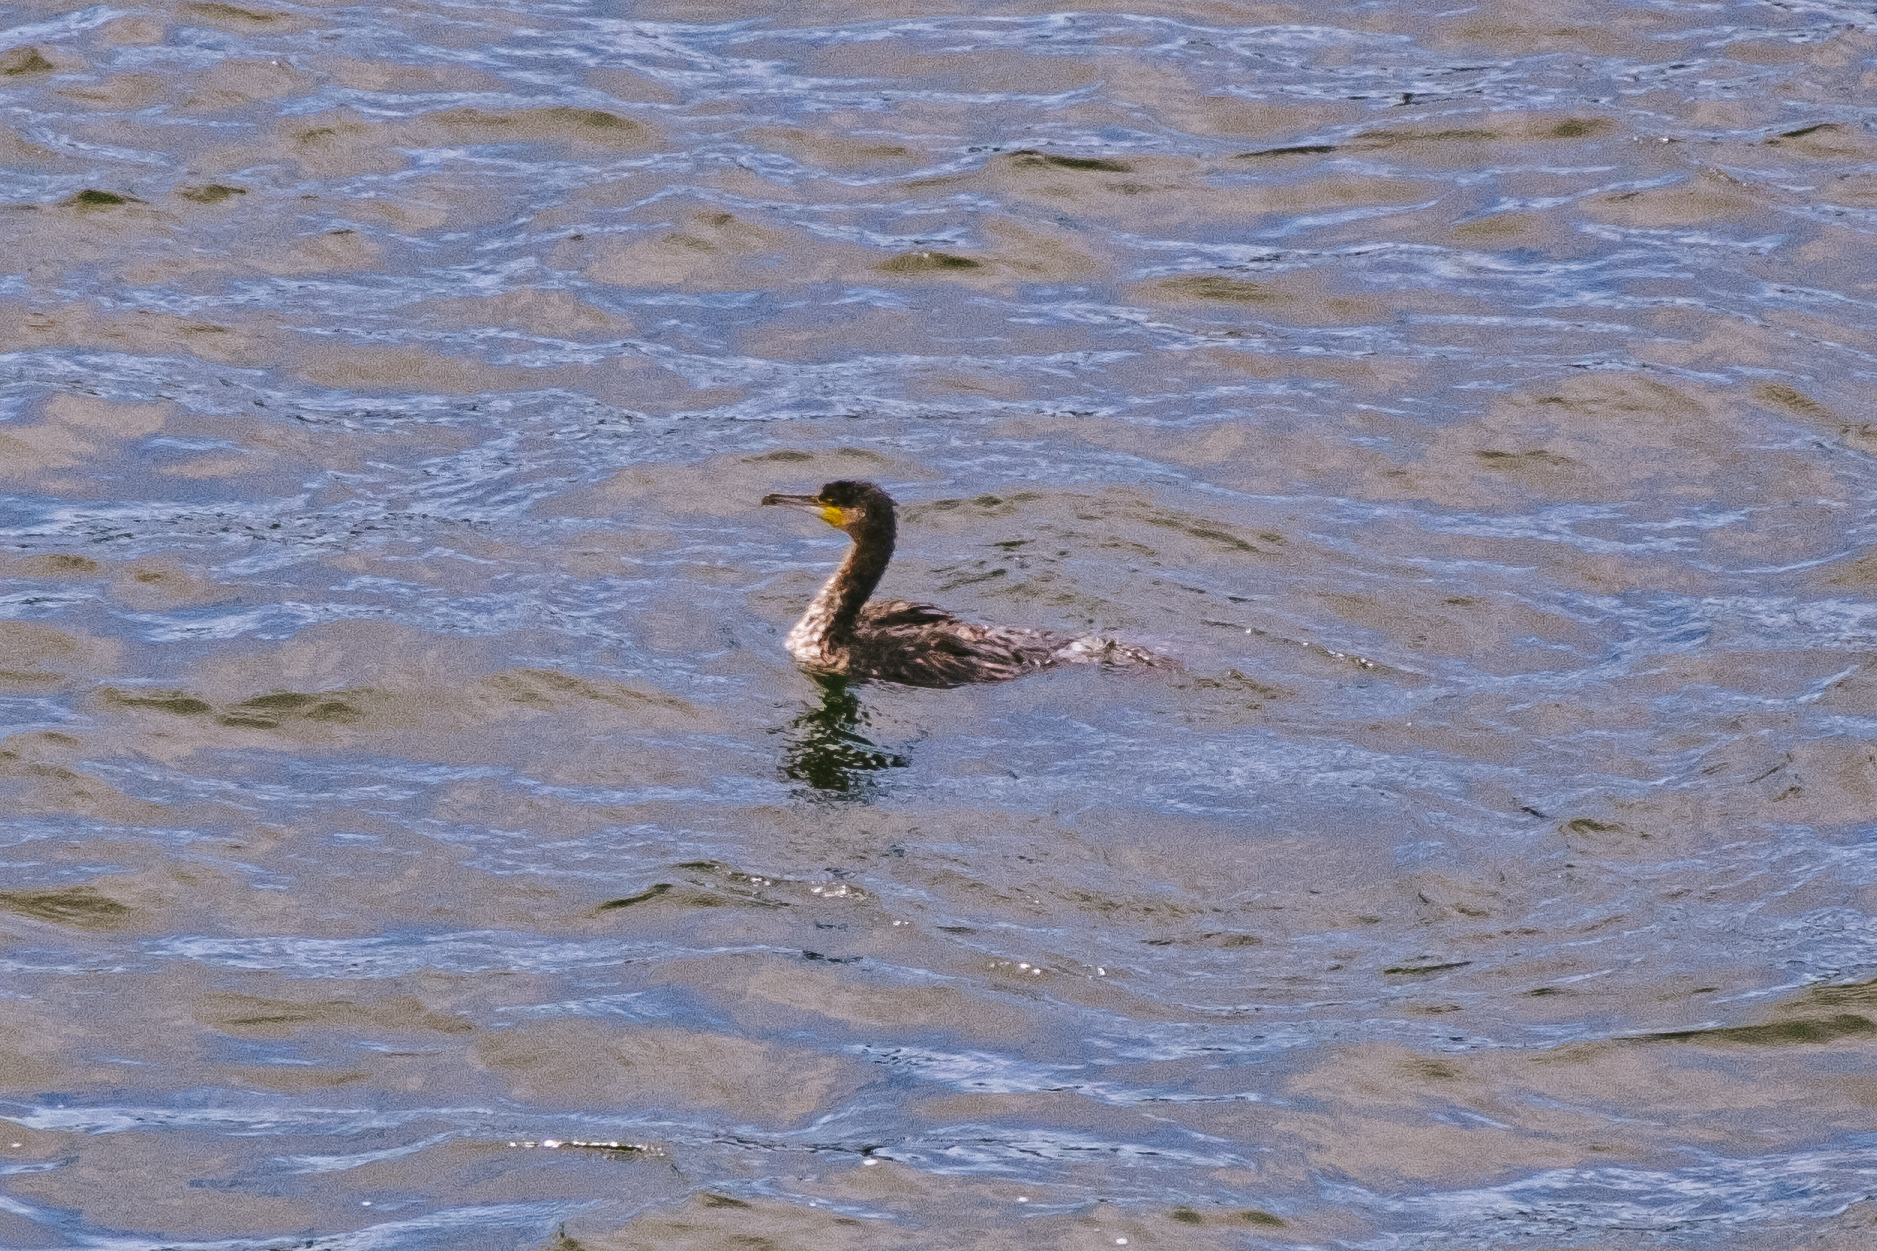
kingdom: Animalia
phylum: Chordata
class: Aves
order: Suliformes
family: Phalacrocoracidae
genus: Phalacrocorax
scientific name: Phalacrocorax carbo
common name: Great cormorant
